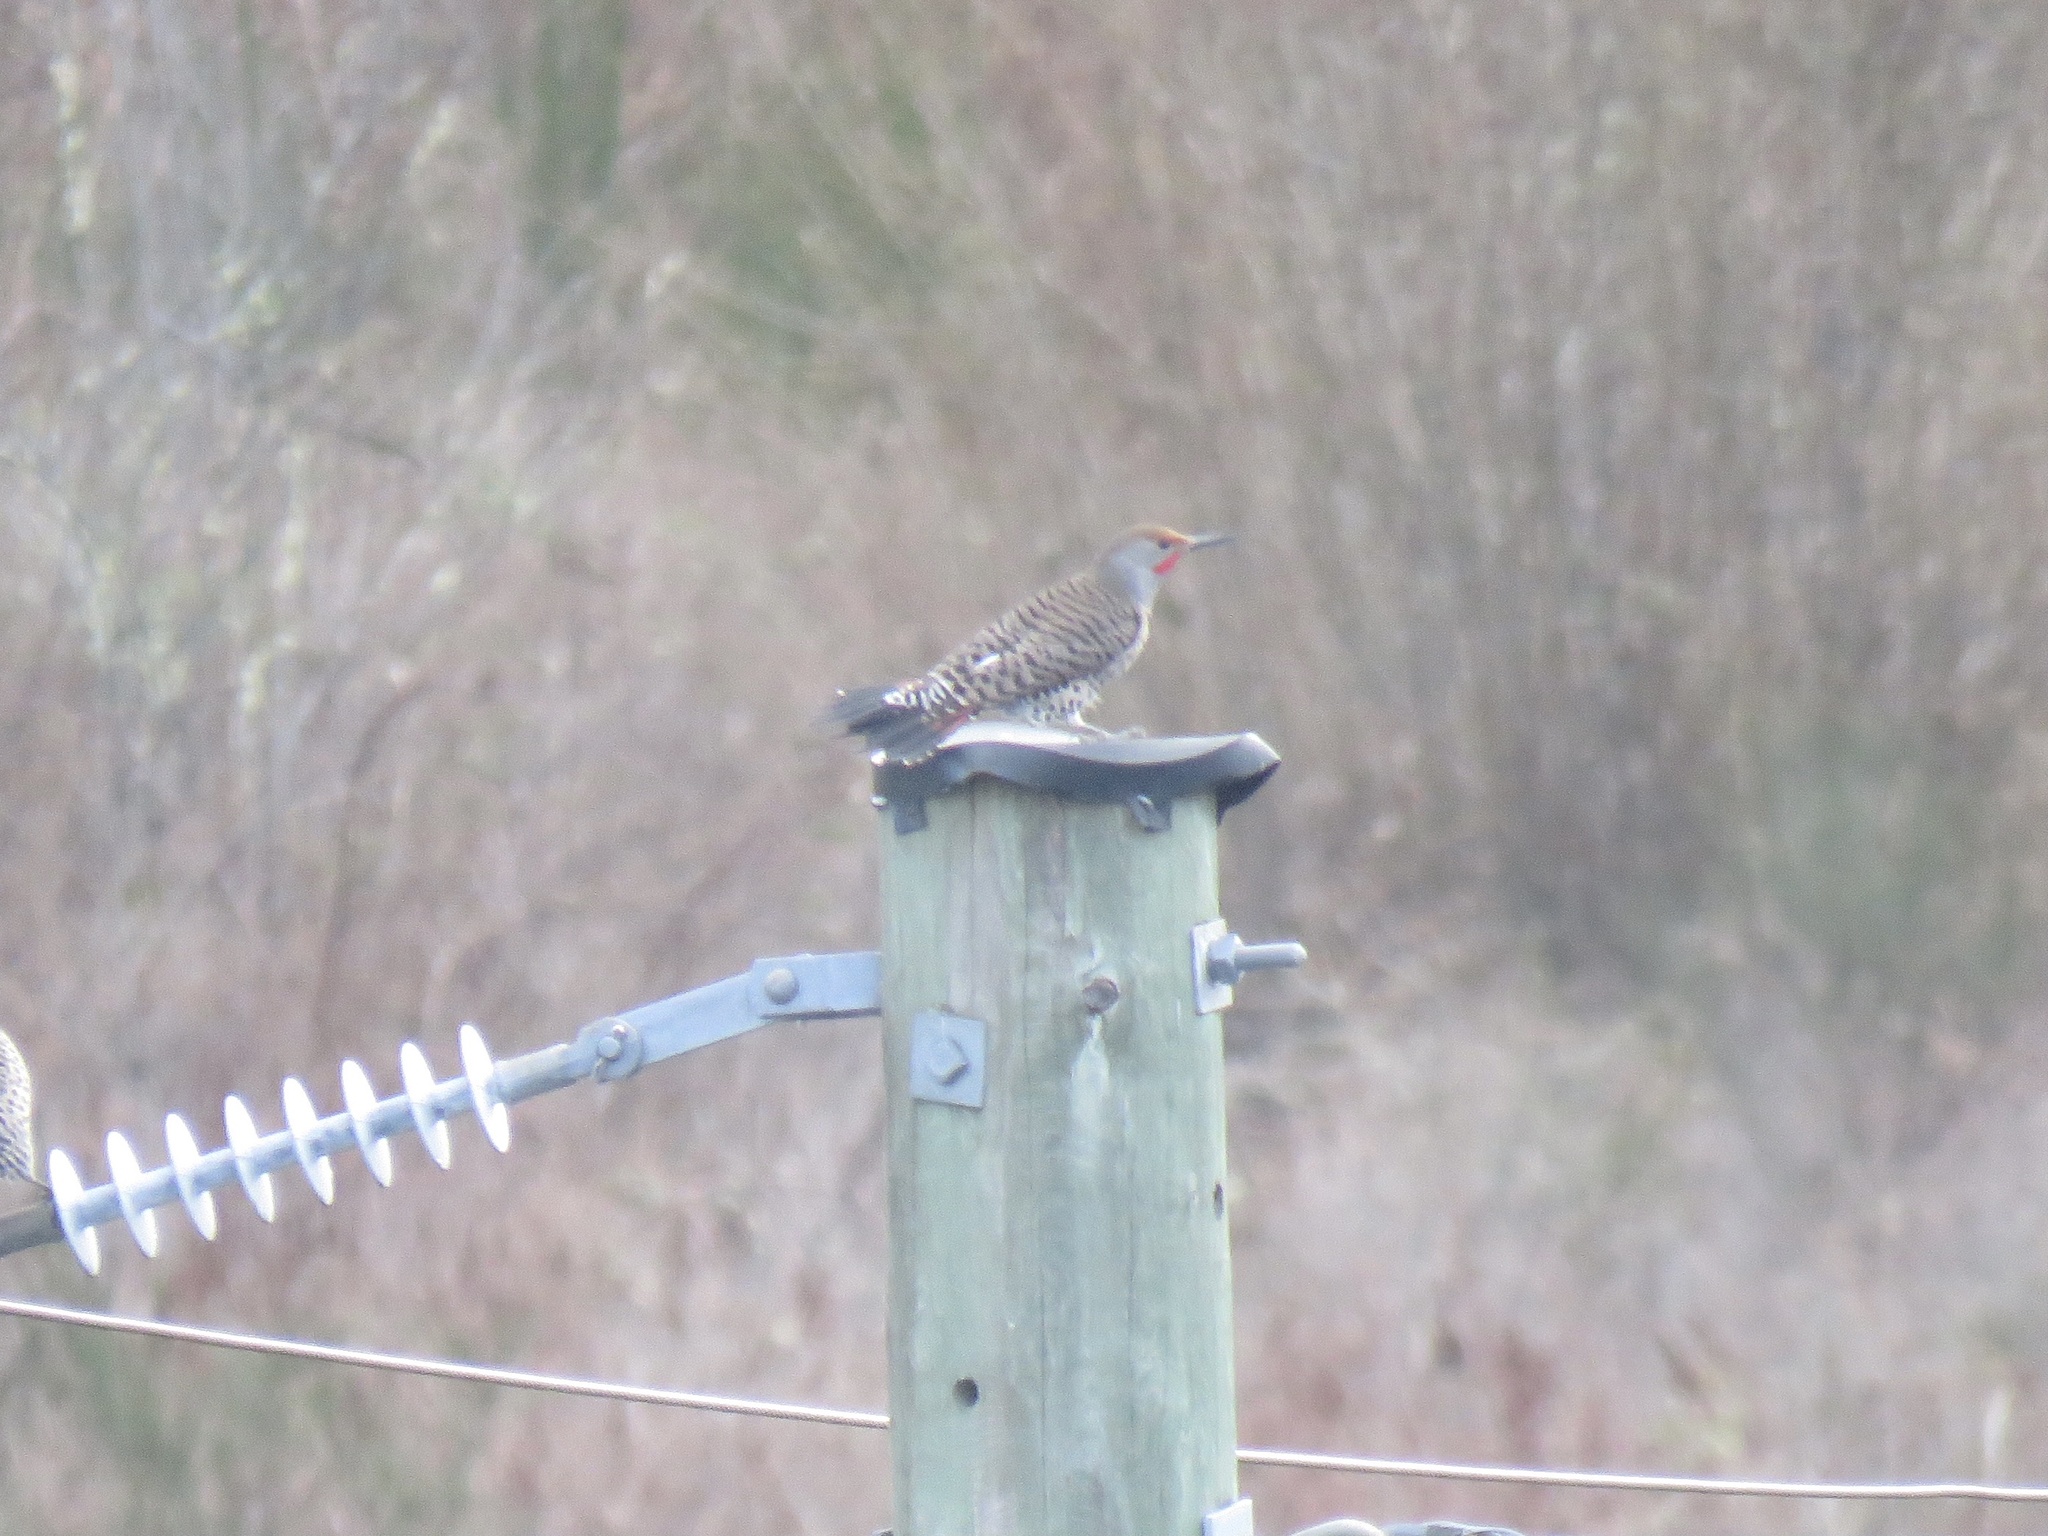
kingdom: Animalia
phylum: Chordata
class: Aves
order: Piciformes
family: Picidae
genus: Colaptes
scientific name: Colaptes auratus
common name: Northern flicker
